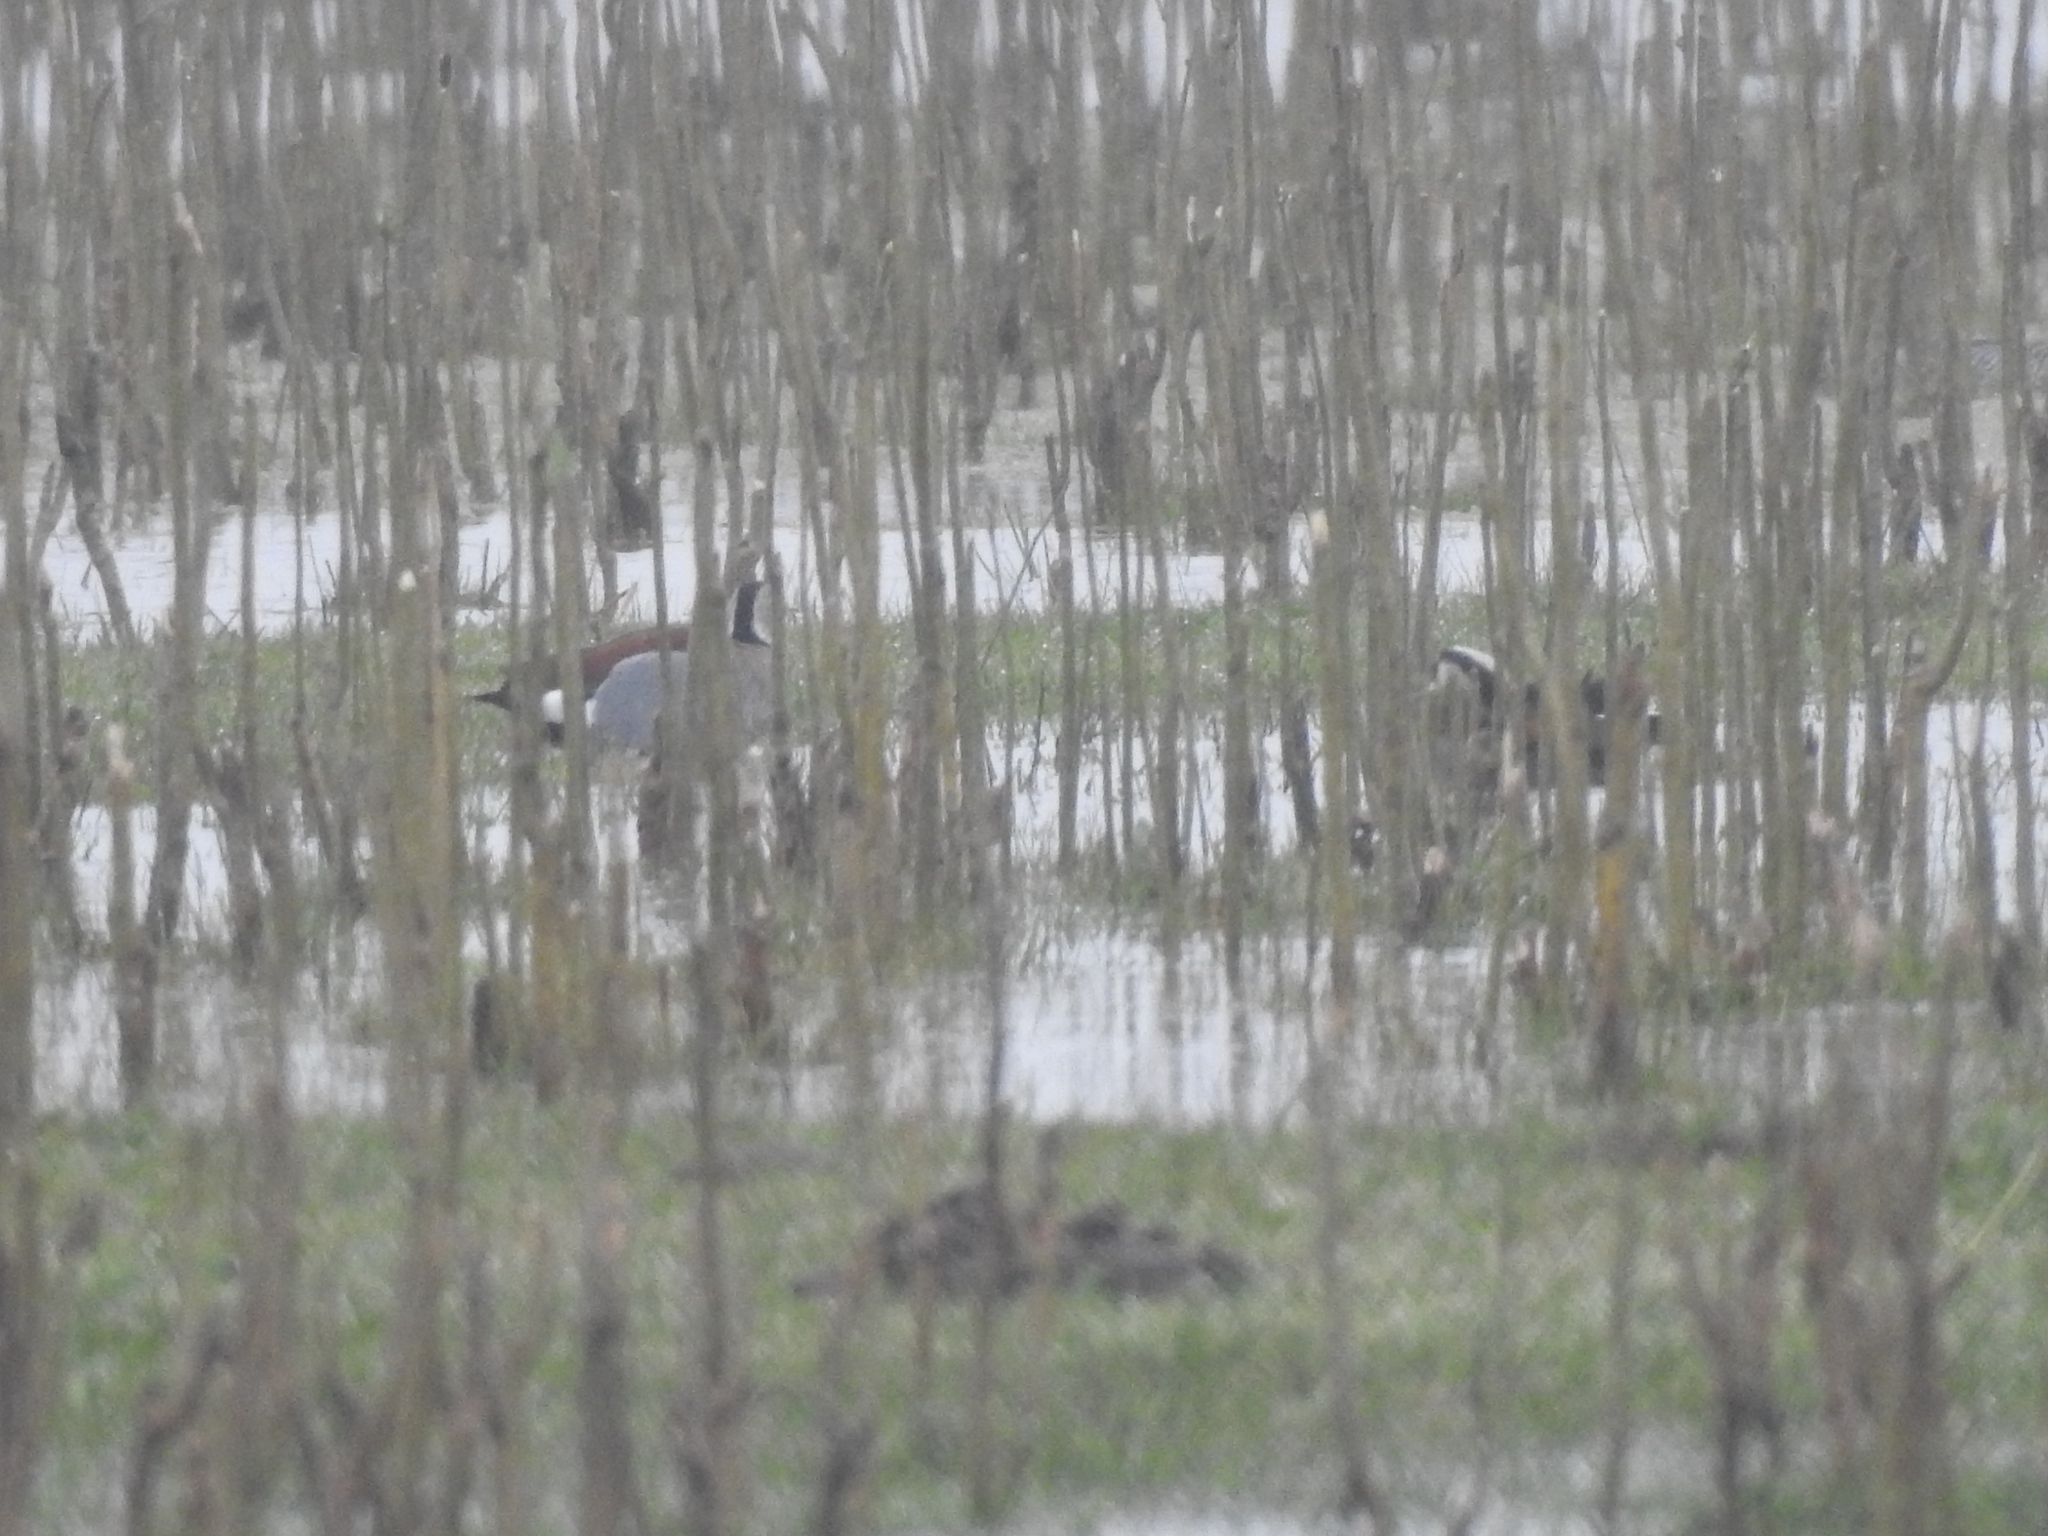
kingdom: Animalia
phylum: Chordata
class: Aves
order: Anseriformes
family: Anatidae
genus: Callonetta
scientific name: Callonetta leucophrys
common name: Ringed teal
